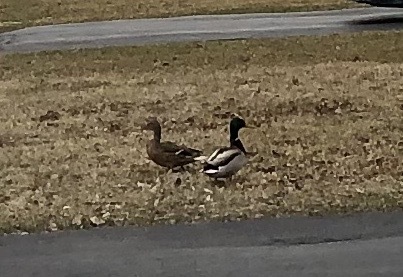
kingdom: Animalia
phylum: Chordata
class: Aves
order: Anseriformes
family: Anatidae
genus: Anas
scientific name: Anas platyrhynchos
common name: Mallard
